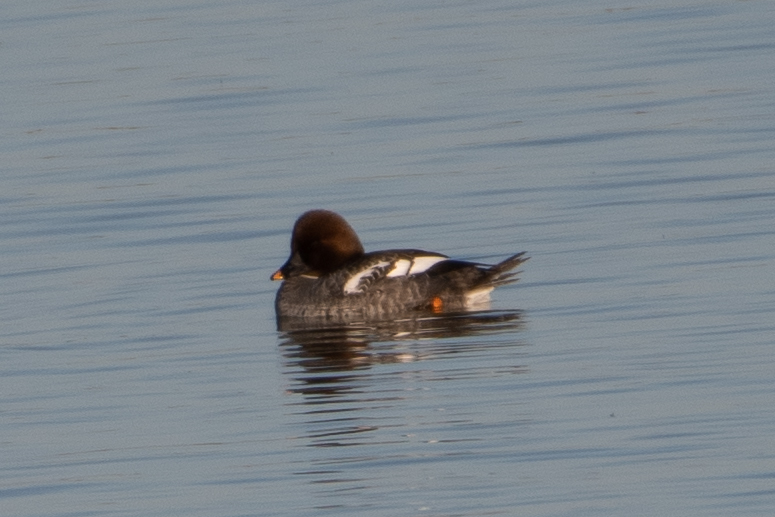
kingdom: Animalia
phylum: Chordata
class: Aves
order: Anseriformes
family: Anatidae
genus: Bucephala
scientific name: Bucephala clangula
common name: Common goldeneye
